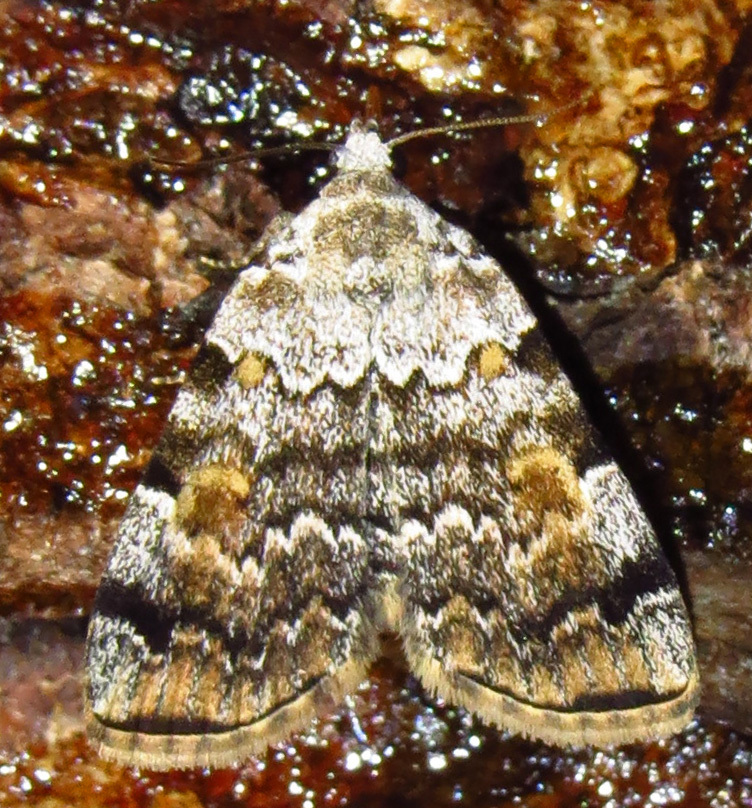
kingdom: Animalia
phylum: Arthropoda
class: Insecta
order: Lepidoptera
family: Erebidae
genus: Idia
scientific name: Idia americalis
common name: American idia moth
